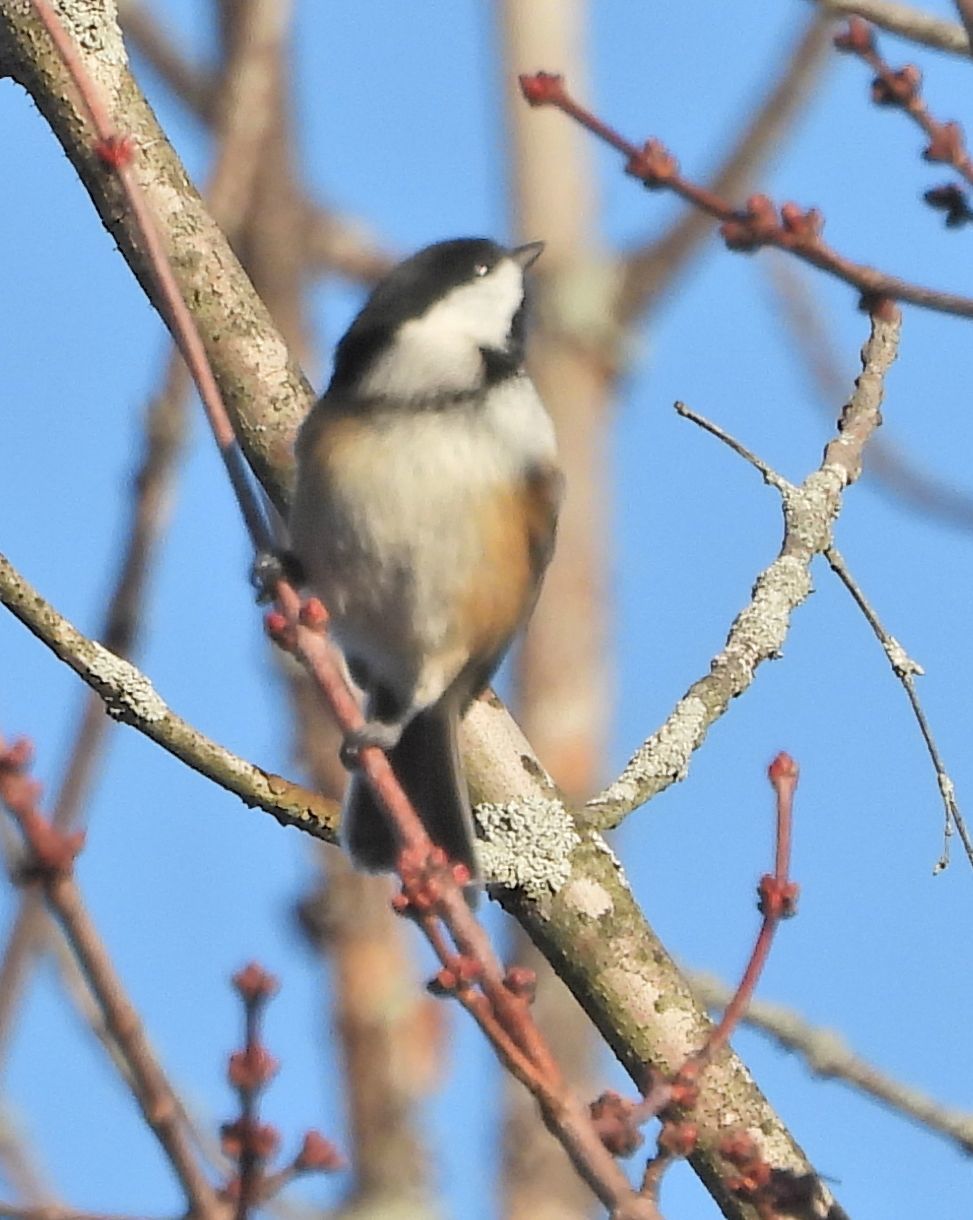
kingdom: Animalia
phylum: Chordata
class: Aves
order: Passeriformes
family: Paridae
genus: Poecile
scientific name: Poecile atricapillus
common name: Black-capped chickadee
